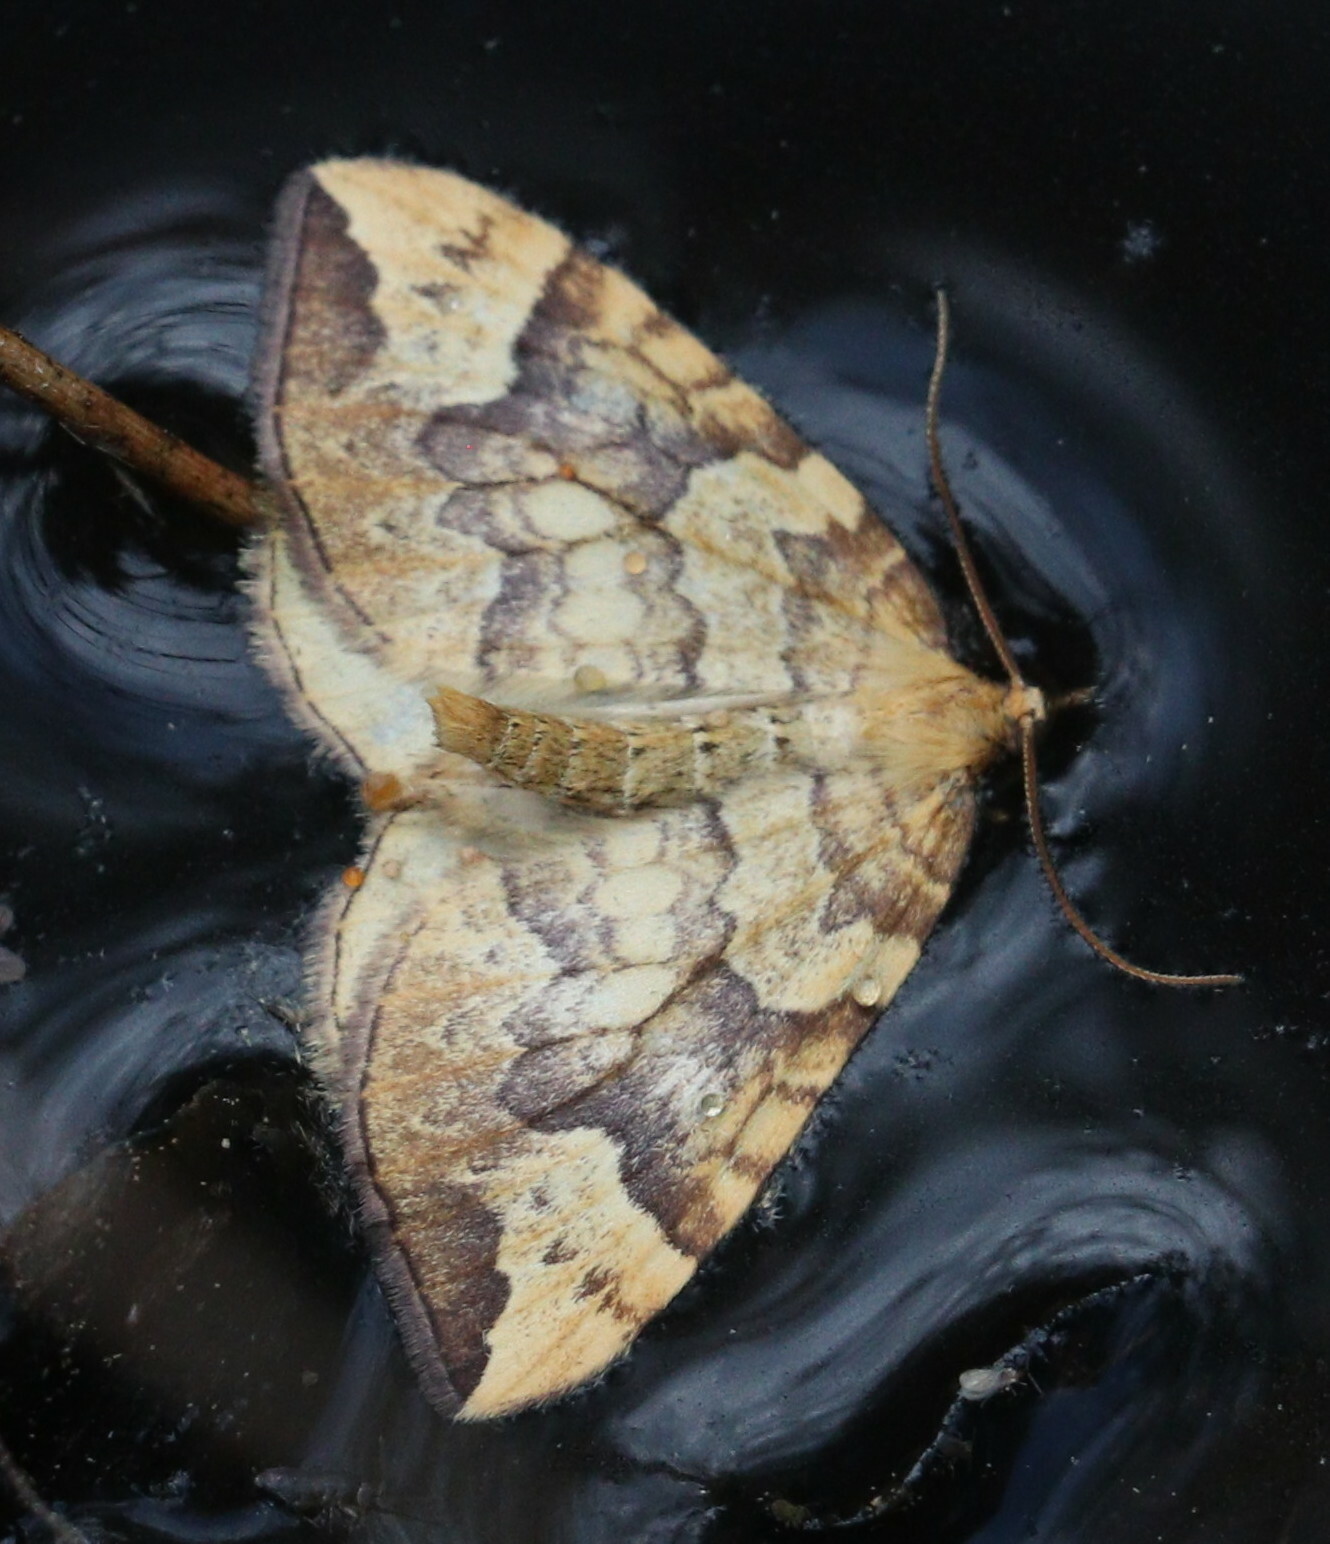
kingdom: Animalia
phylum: Arthropoda
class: Insecta
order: Lepidoptera
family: Geometridae
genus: Eulithis
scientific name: Eulithis populata
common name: Northern spinach
